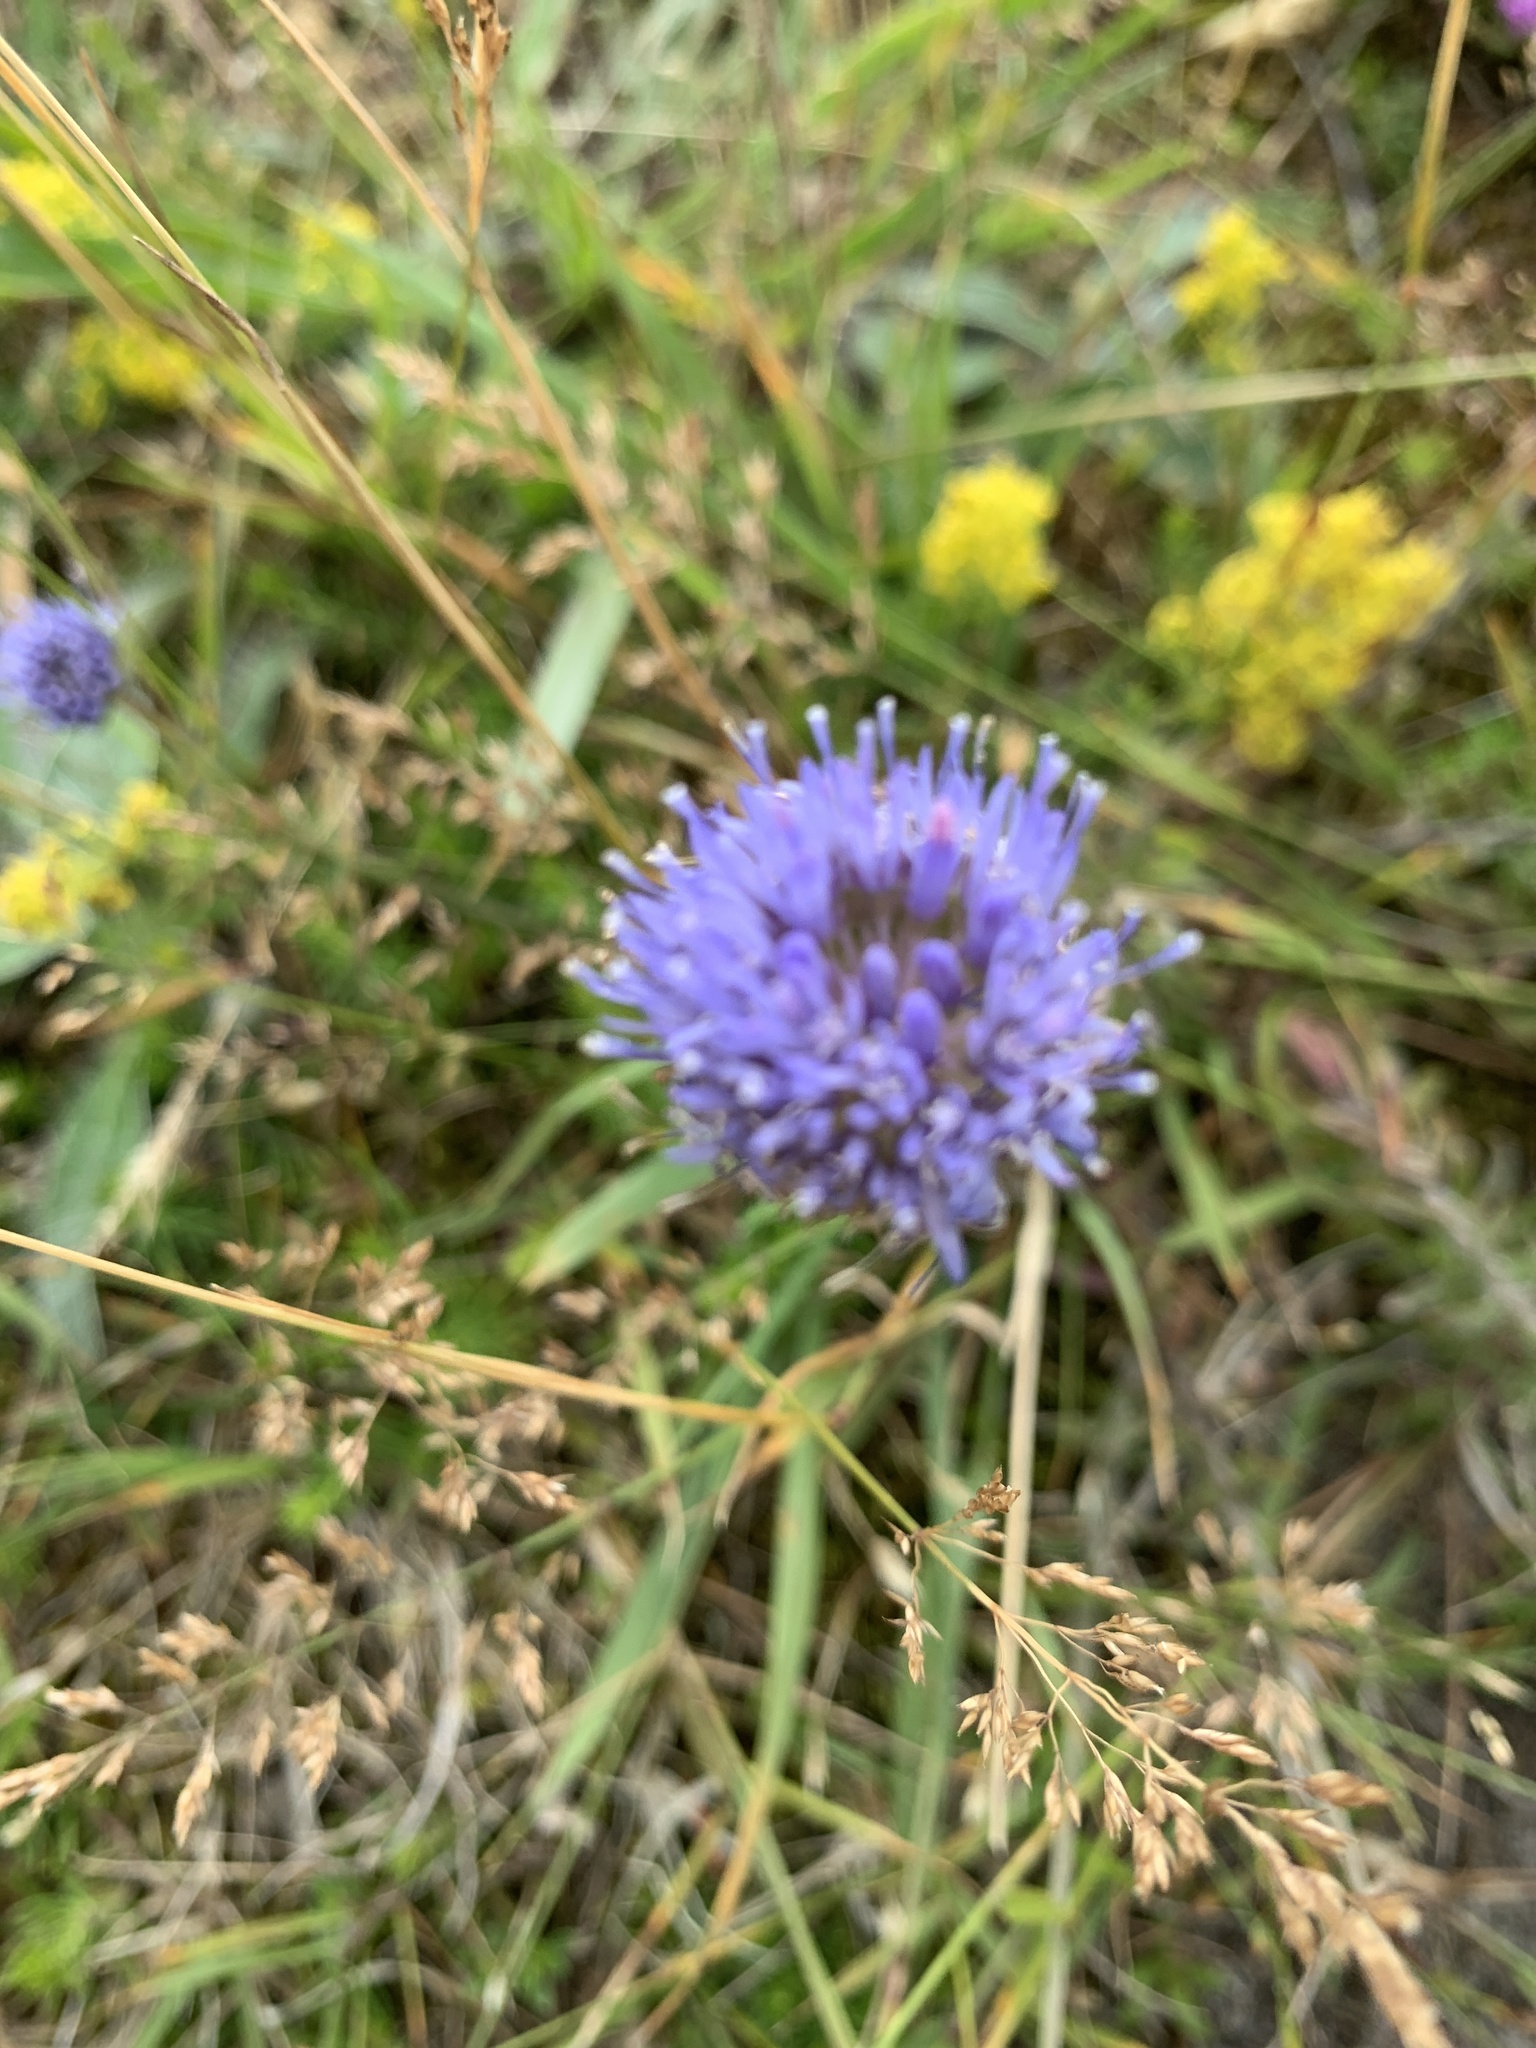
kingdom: Plantae
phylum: Tracheophyta
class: Magnoliopsida
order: Asterales
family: Campanulaceae
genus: Jasione
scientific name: Jasione montana
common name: Sheep's-bit
